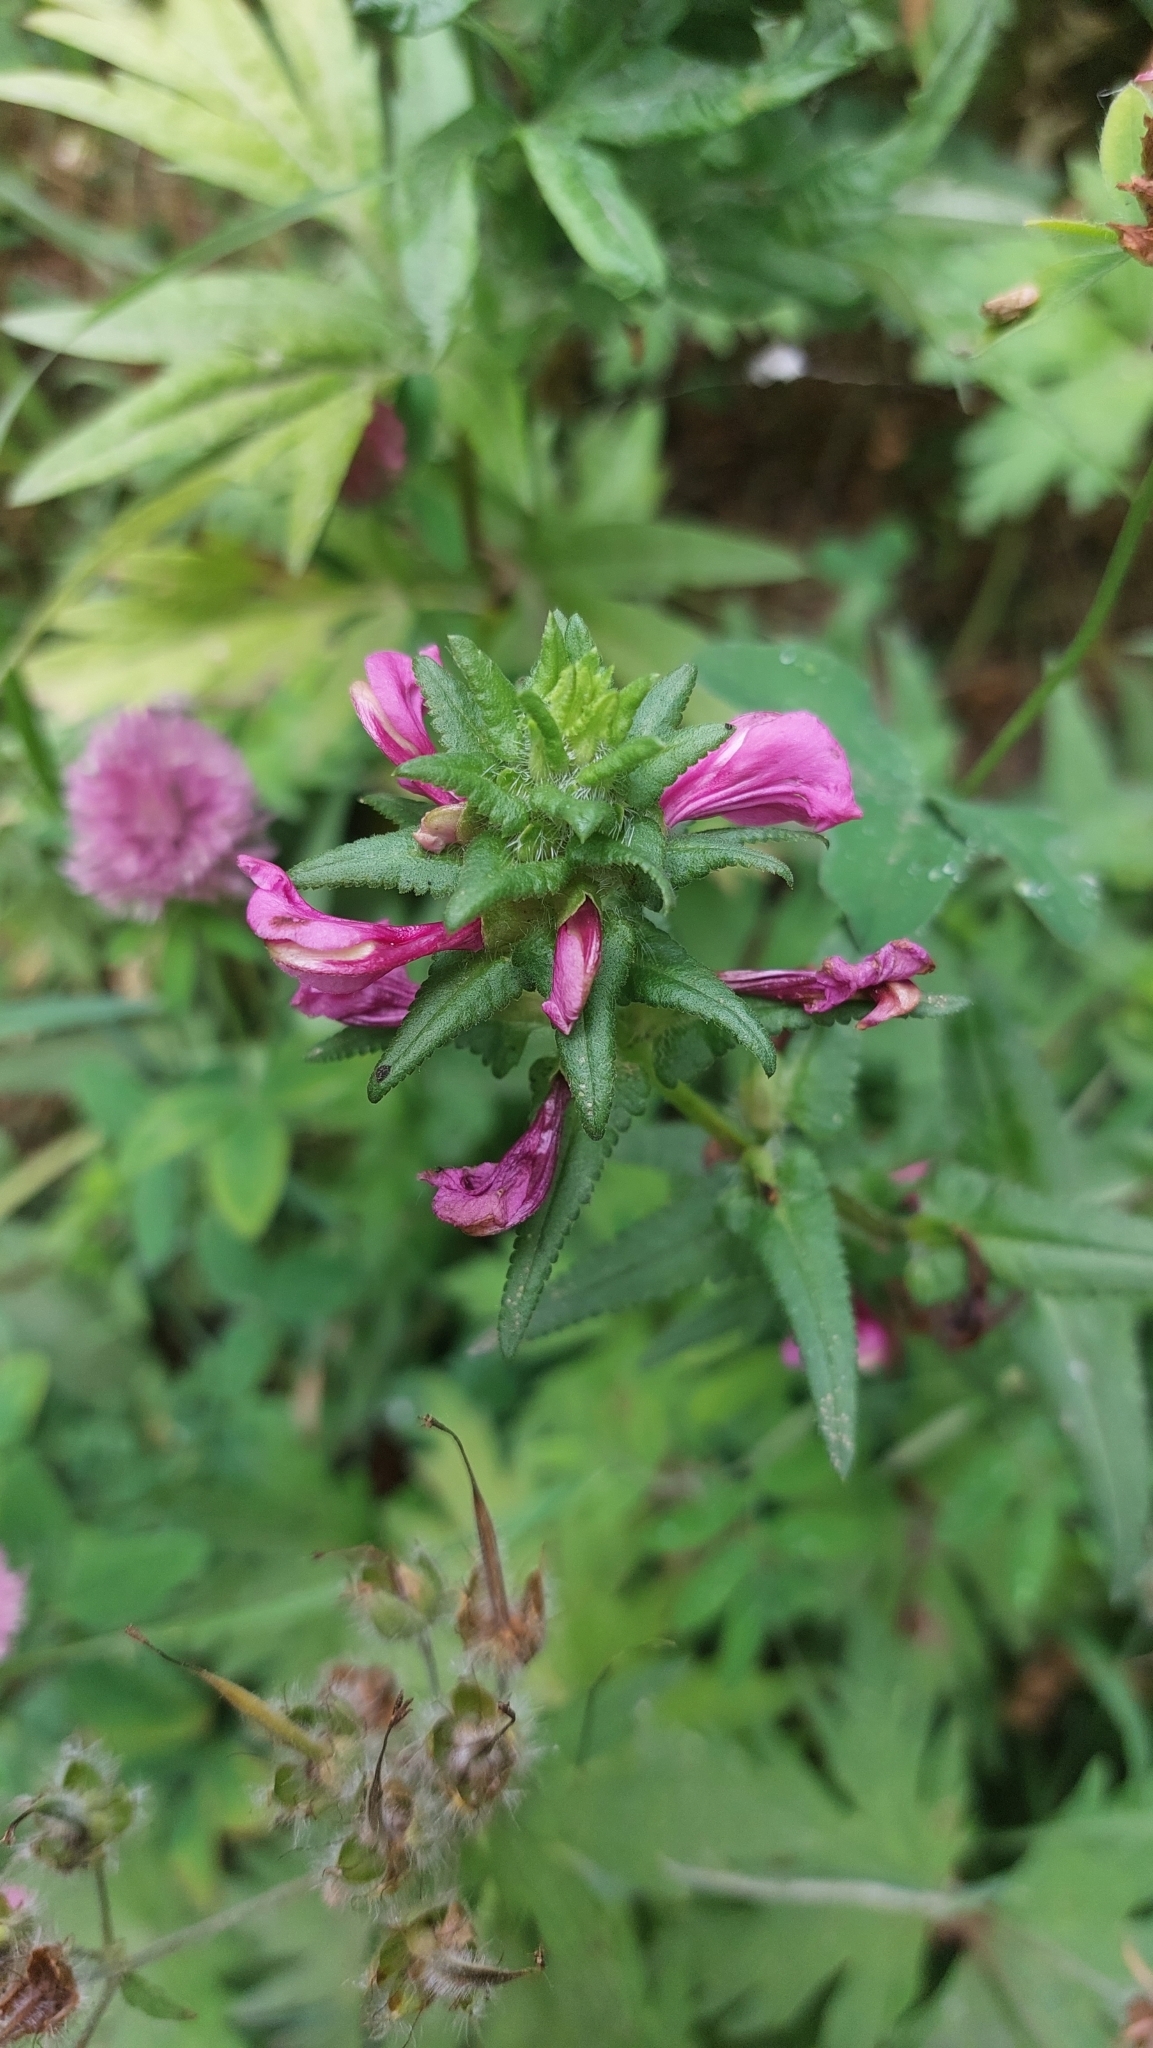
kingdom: Plantae
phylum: Tracheophyta
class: Magnoliopsida
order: Lamiales
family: Orobanchaceae
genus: Pedicularis
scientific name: Pedicularis resupinata
